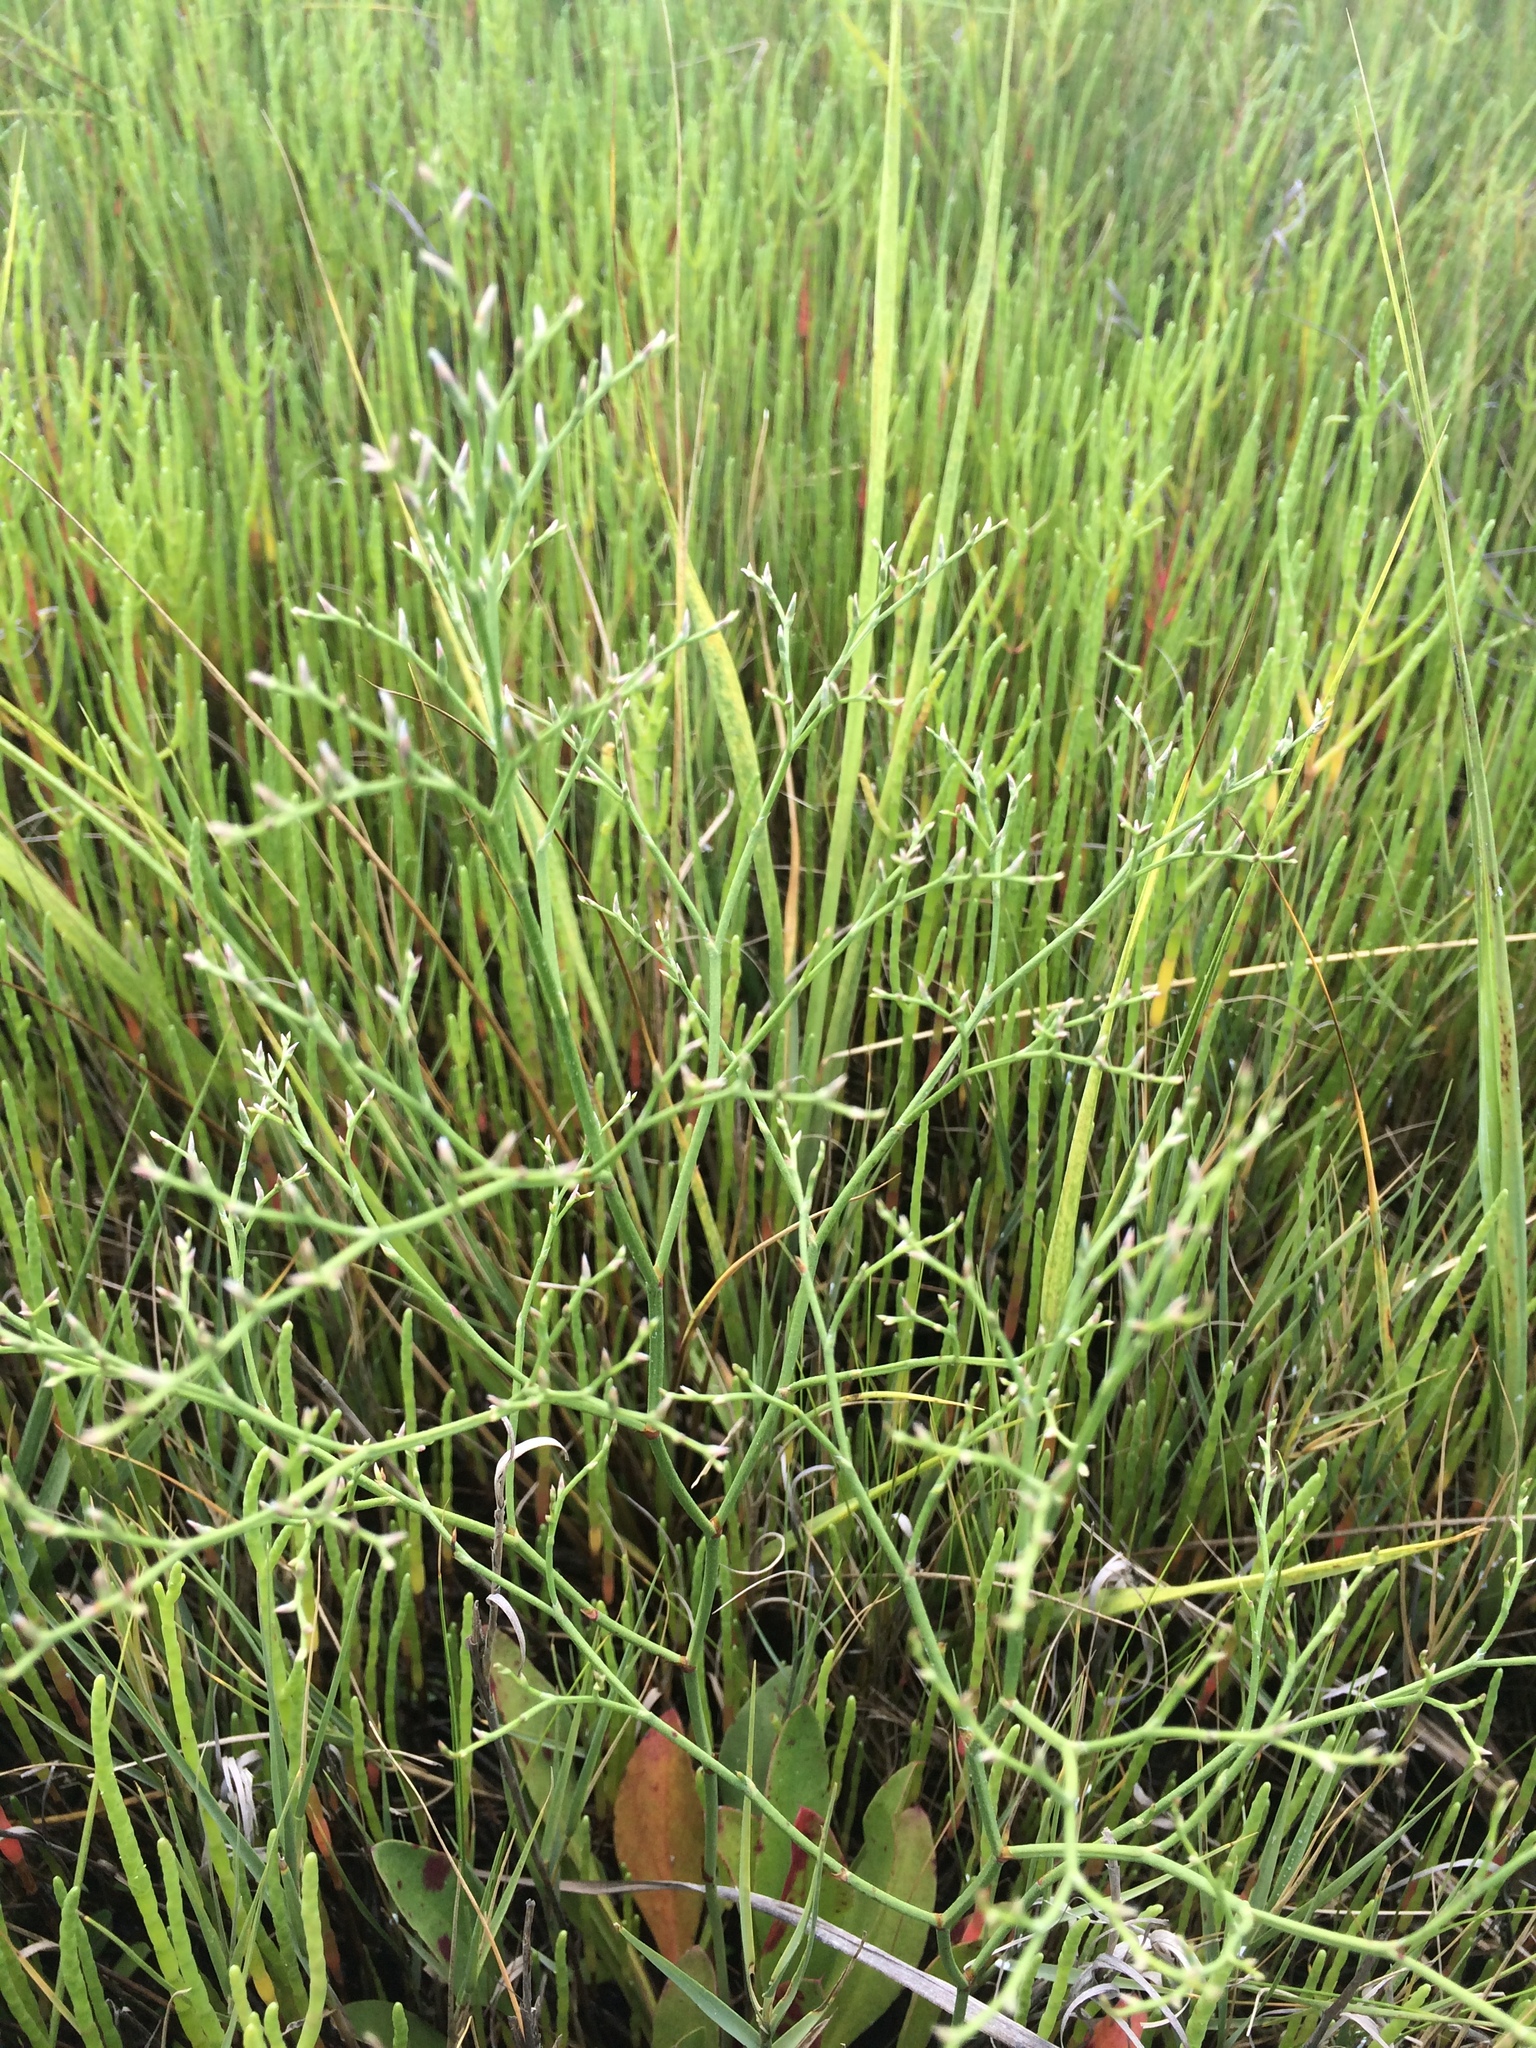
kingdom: Plantae
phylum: Tracheophyta
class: Magnoliopsida
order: Caryophyllales
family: Plumbaginaceae
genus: Limonium
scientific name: Limonium carolinianum
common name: Carolina sea lavender
